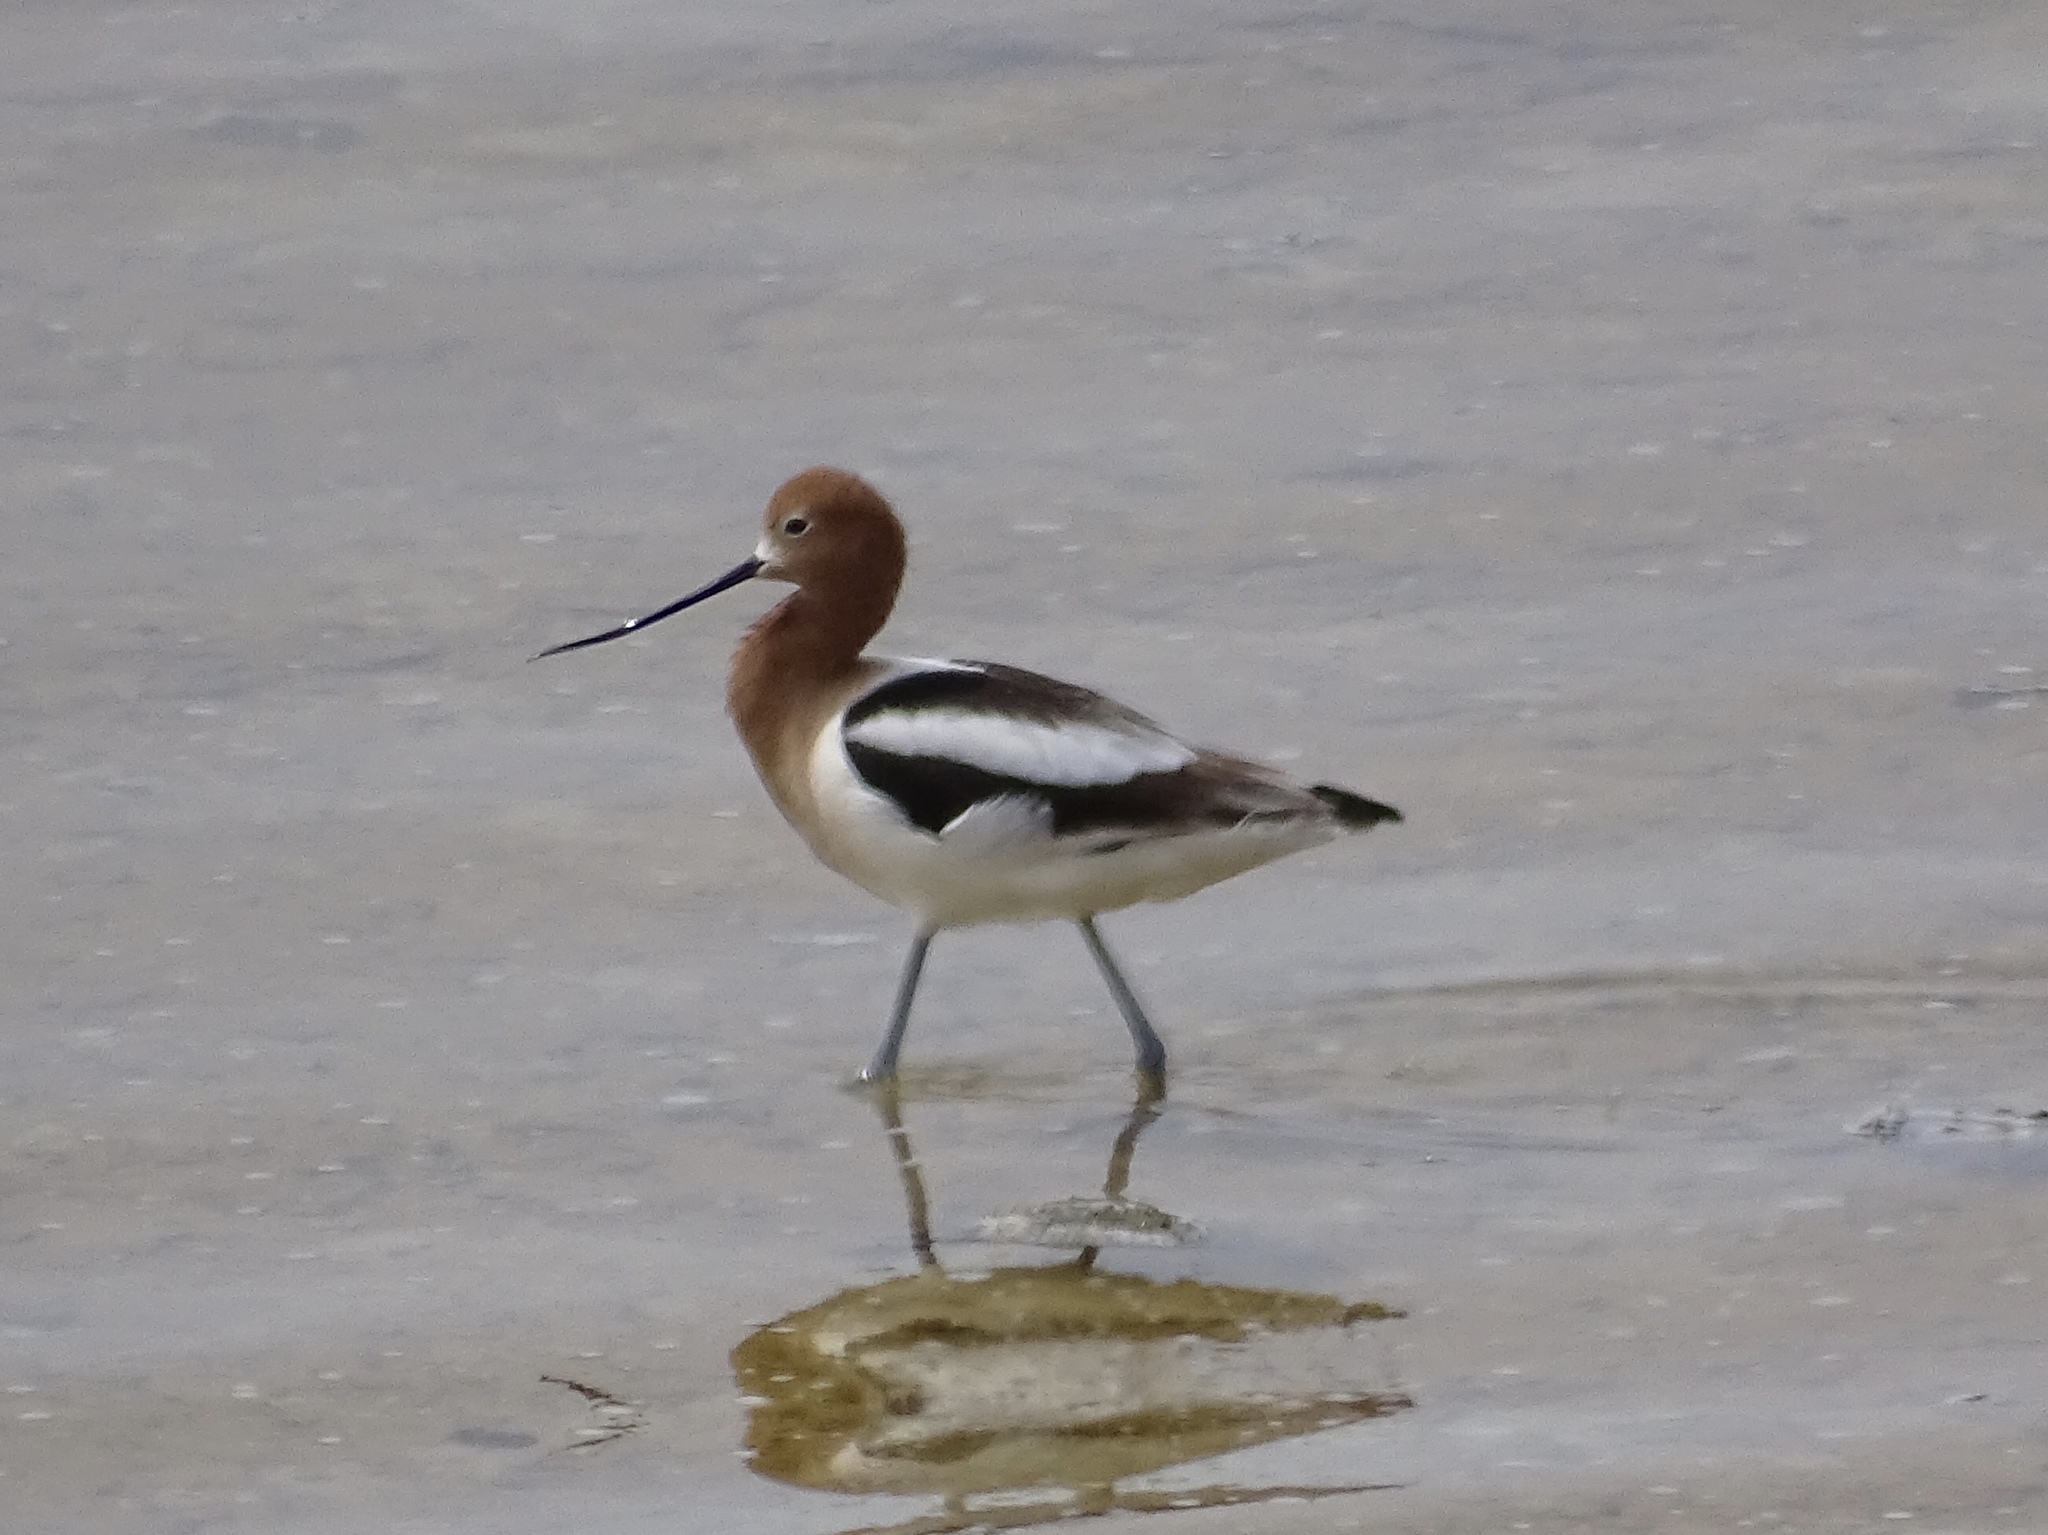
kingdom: Animalia
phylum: Chordata
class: Aves
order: Charadriiformes
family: Recurvirostridae
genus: Recurvirostra
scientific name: Recurvirostra americana
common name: American avocet
